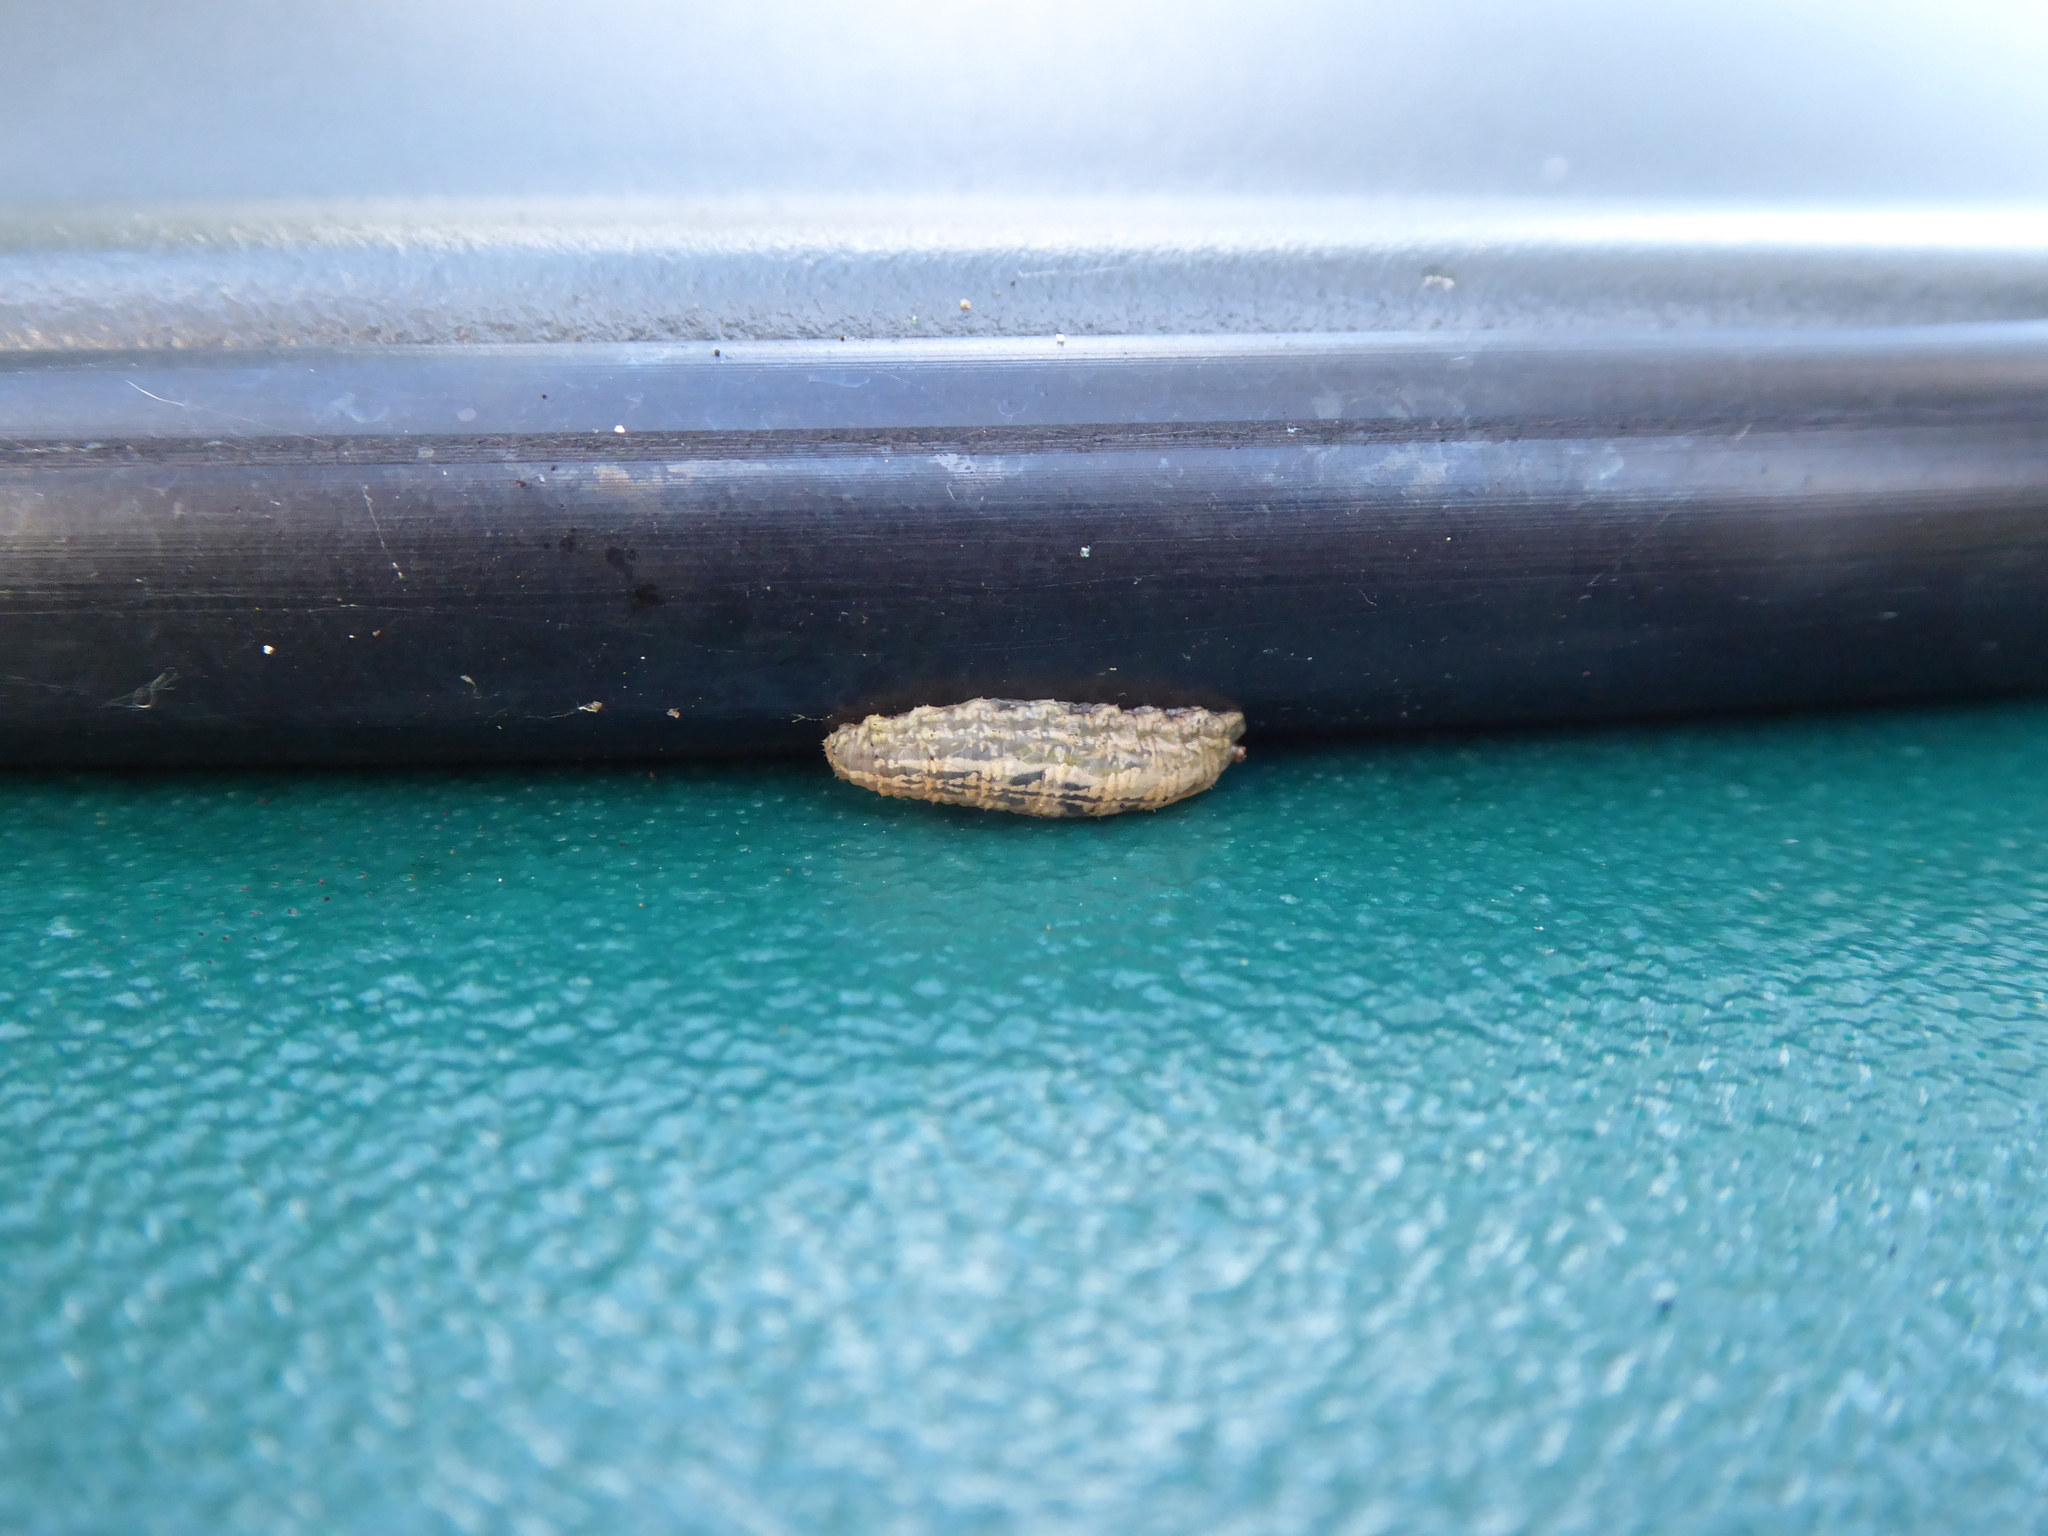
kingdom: Animalia
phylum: Arthropoda
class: Insecta
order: Diptera
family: Syrphidae
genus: Syrphus
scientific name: Syrphus
